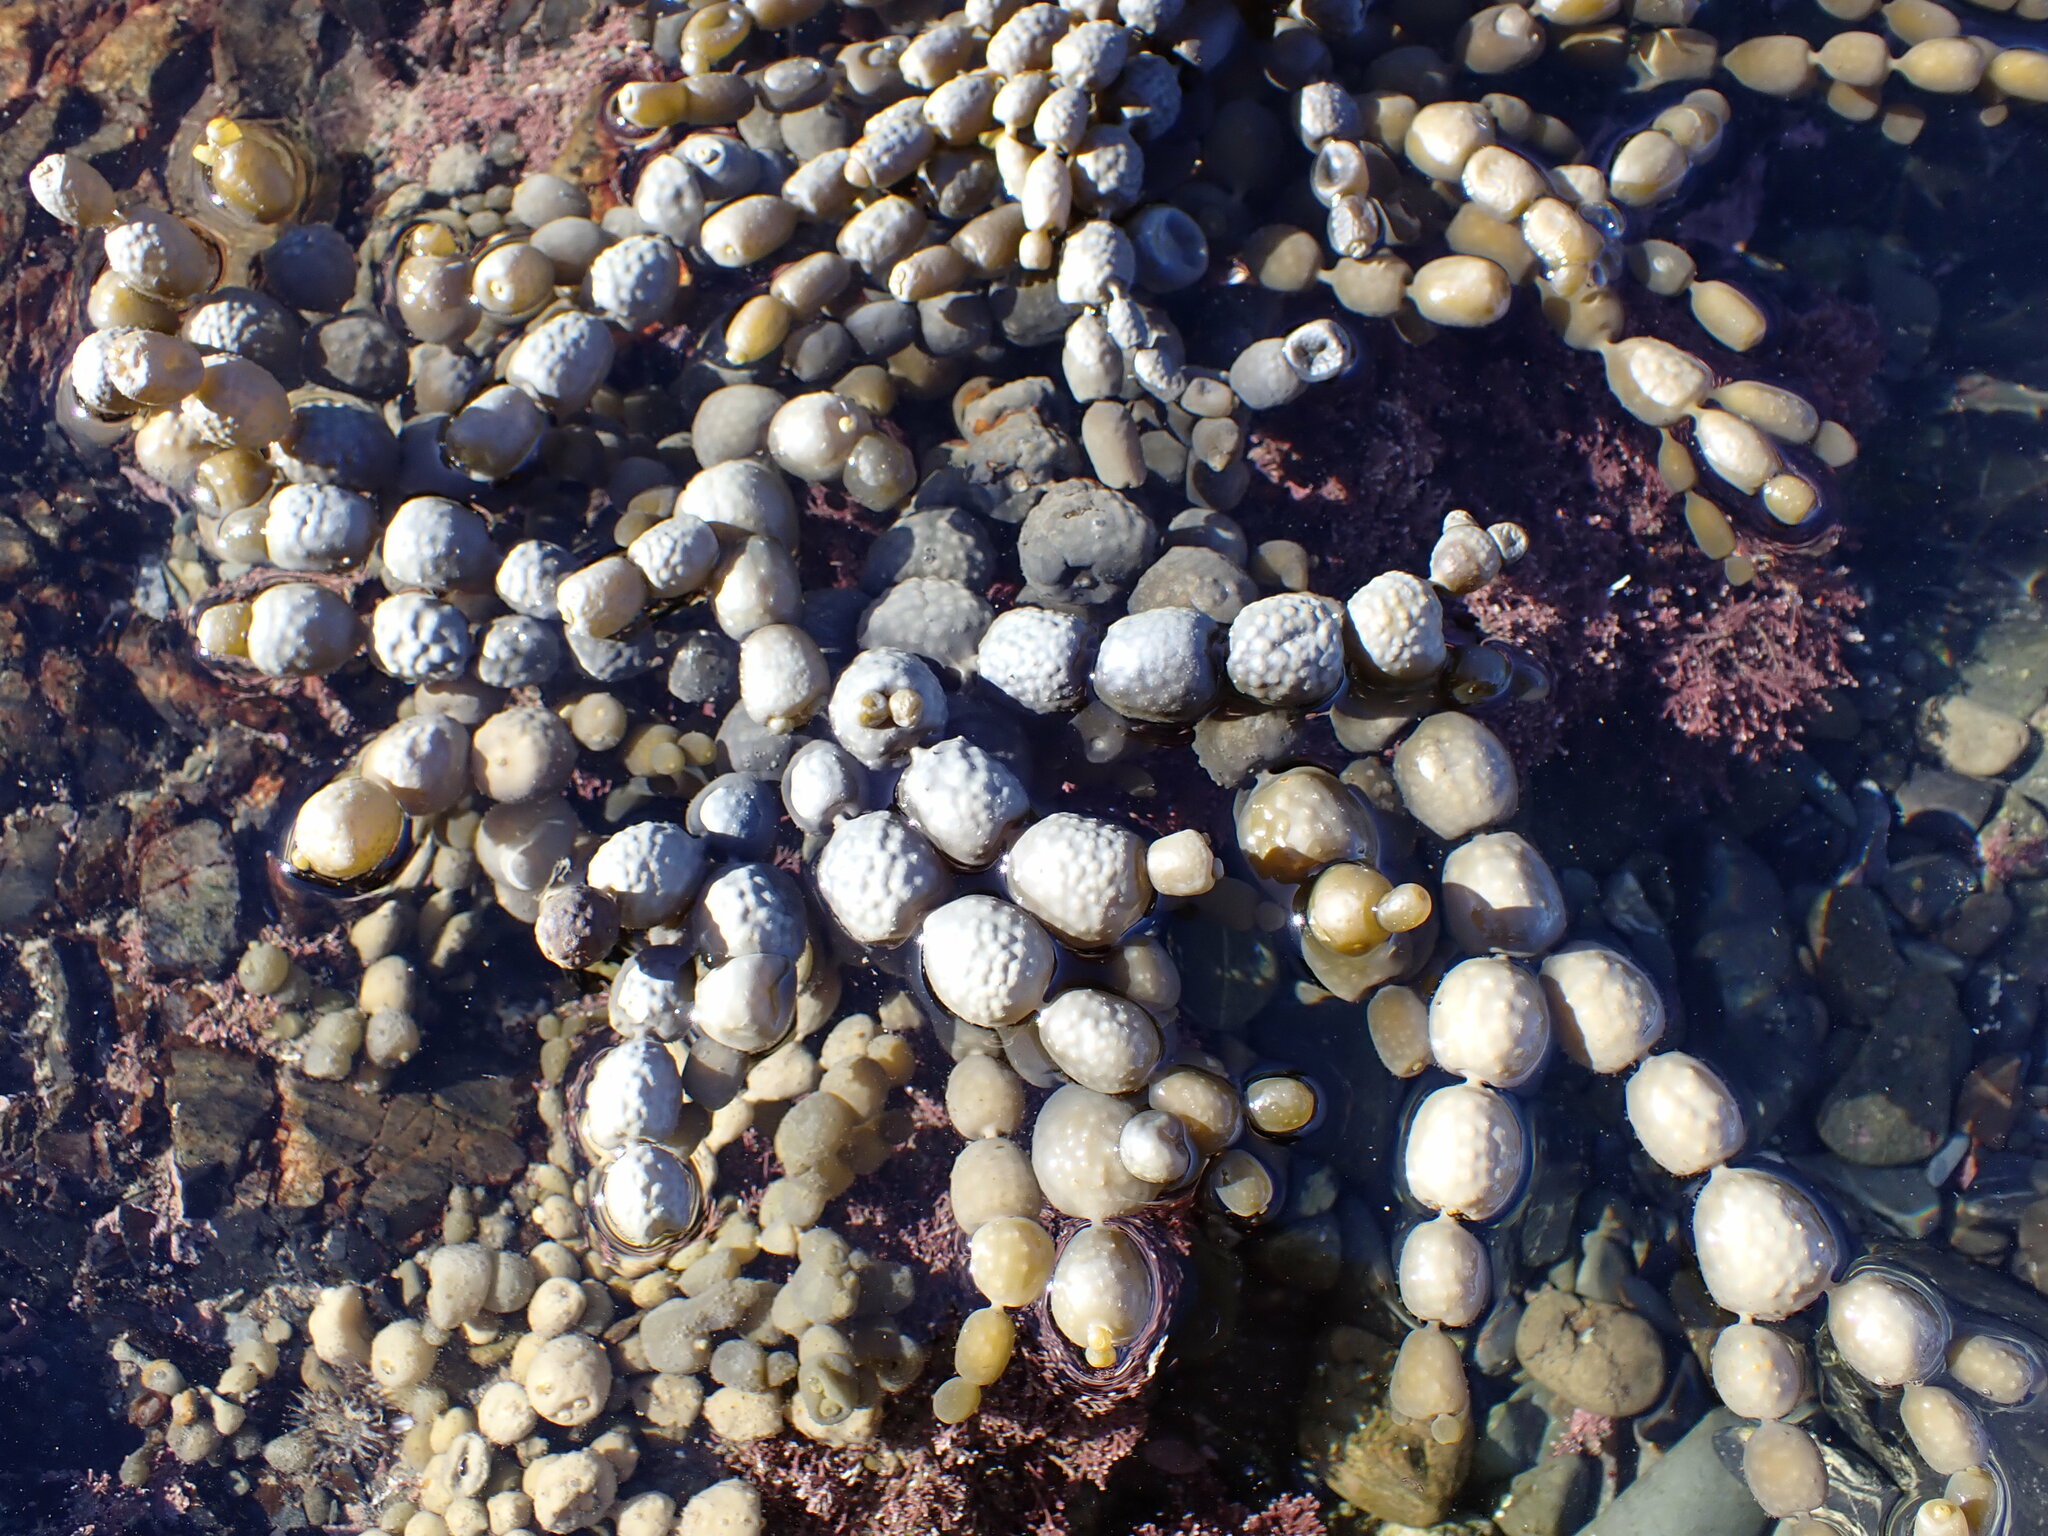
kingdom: Chromista
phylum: Ochrophyta
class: Phaeophyceae
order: Fucales
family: Hormosiraceae
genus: Hormosira
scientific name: Hormosira banksii
